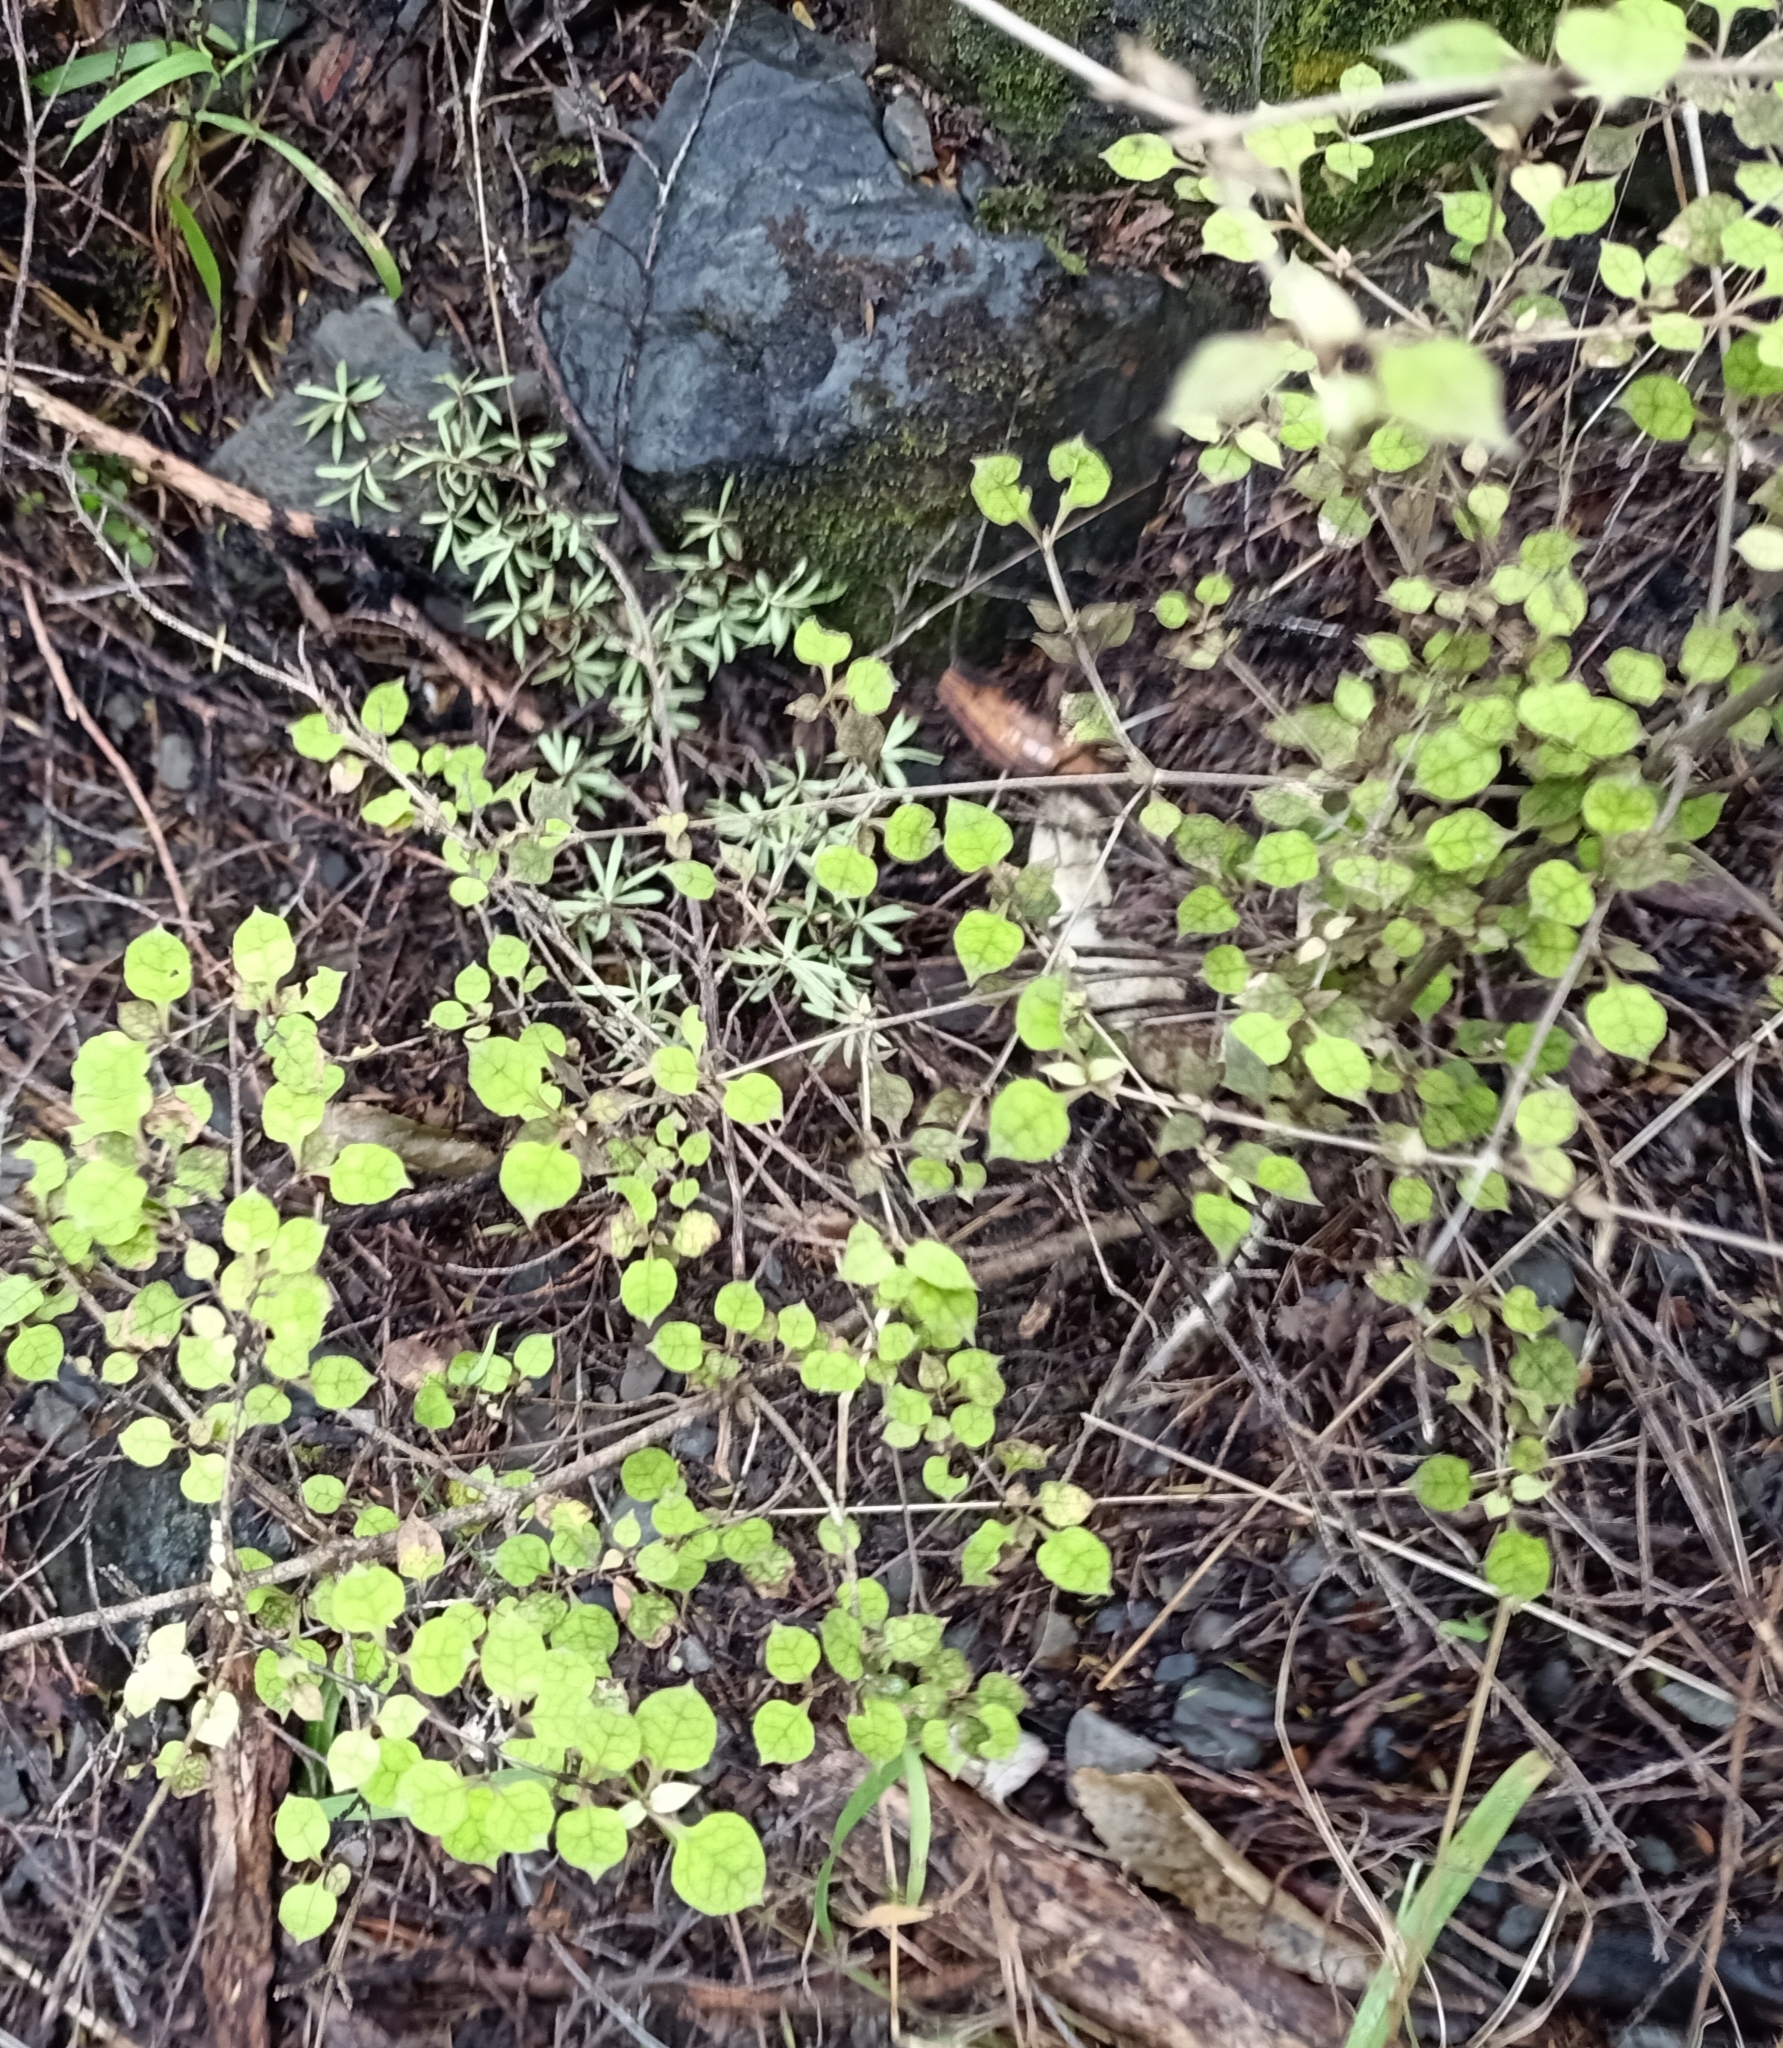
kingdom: Plantae
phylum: Tracheophyta
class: Magnoliopsida
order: Gentianales
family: Rubiaceae
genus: Coprosma
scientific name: Coprosma areolata
